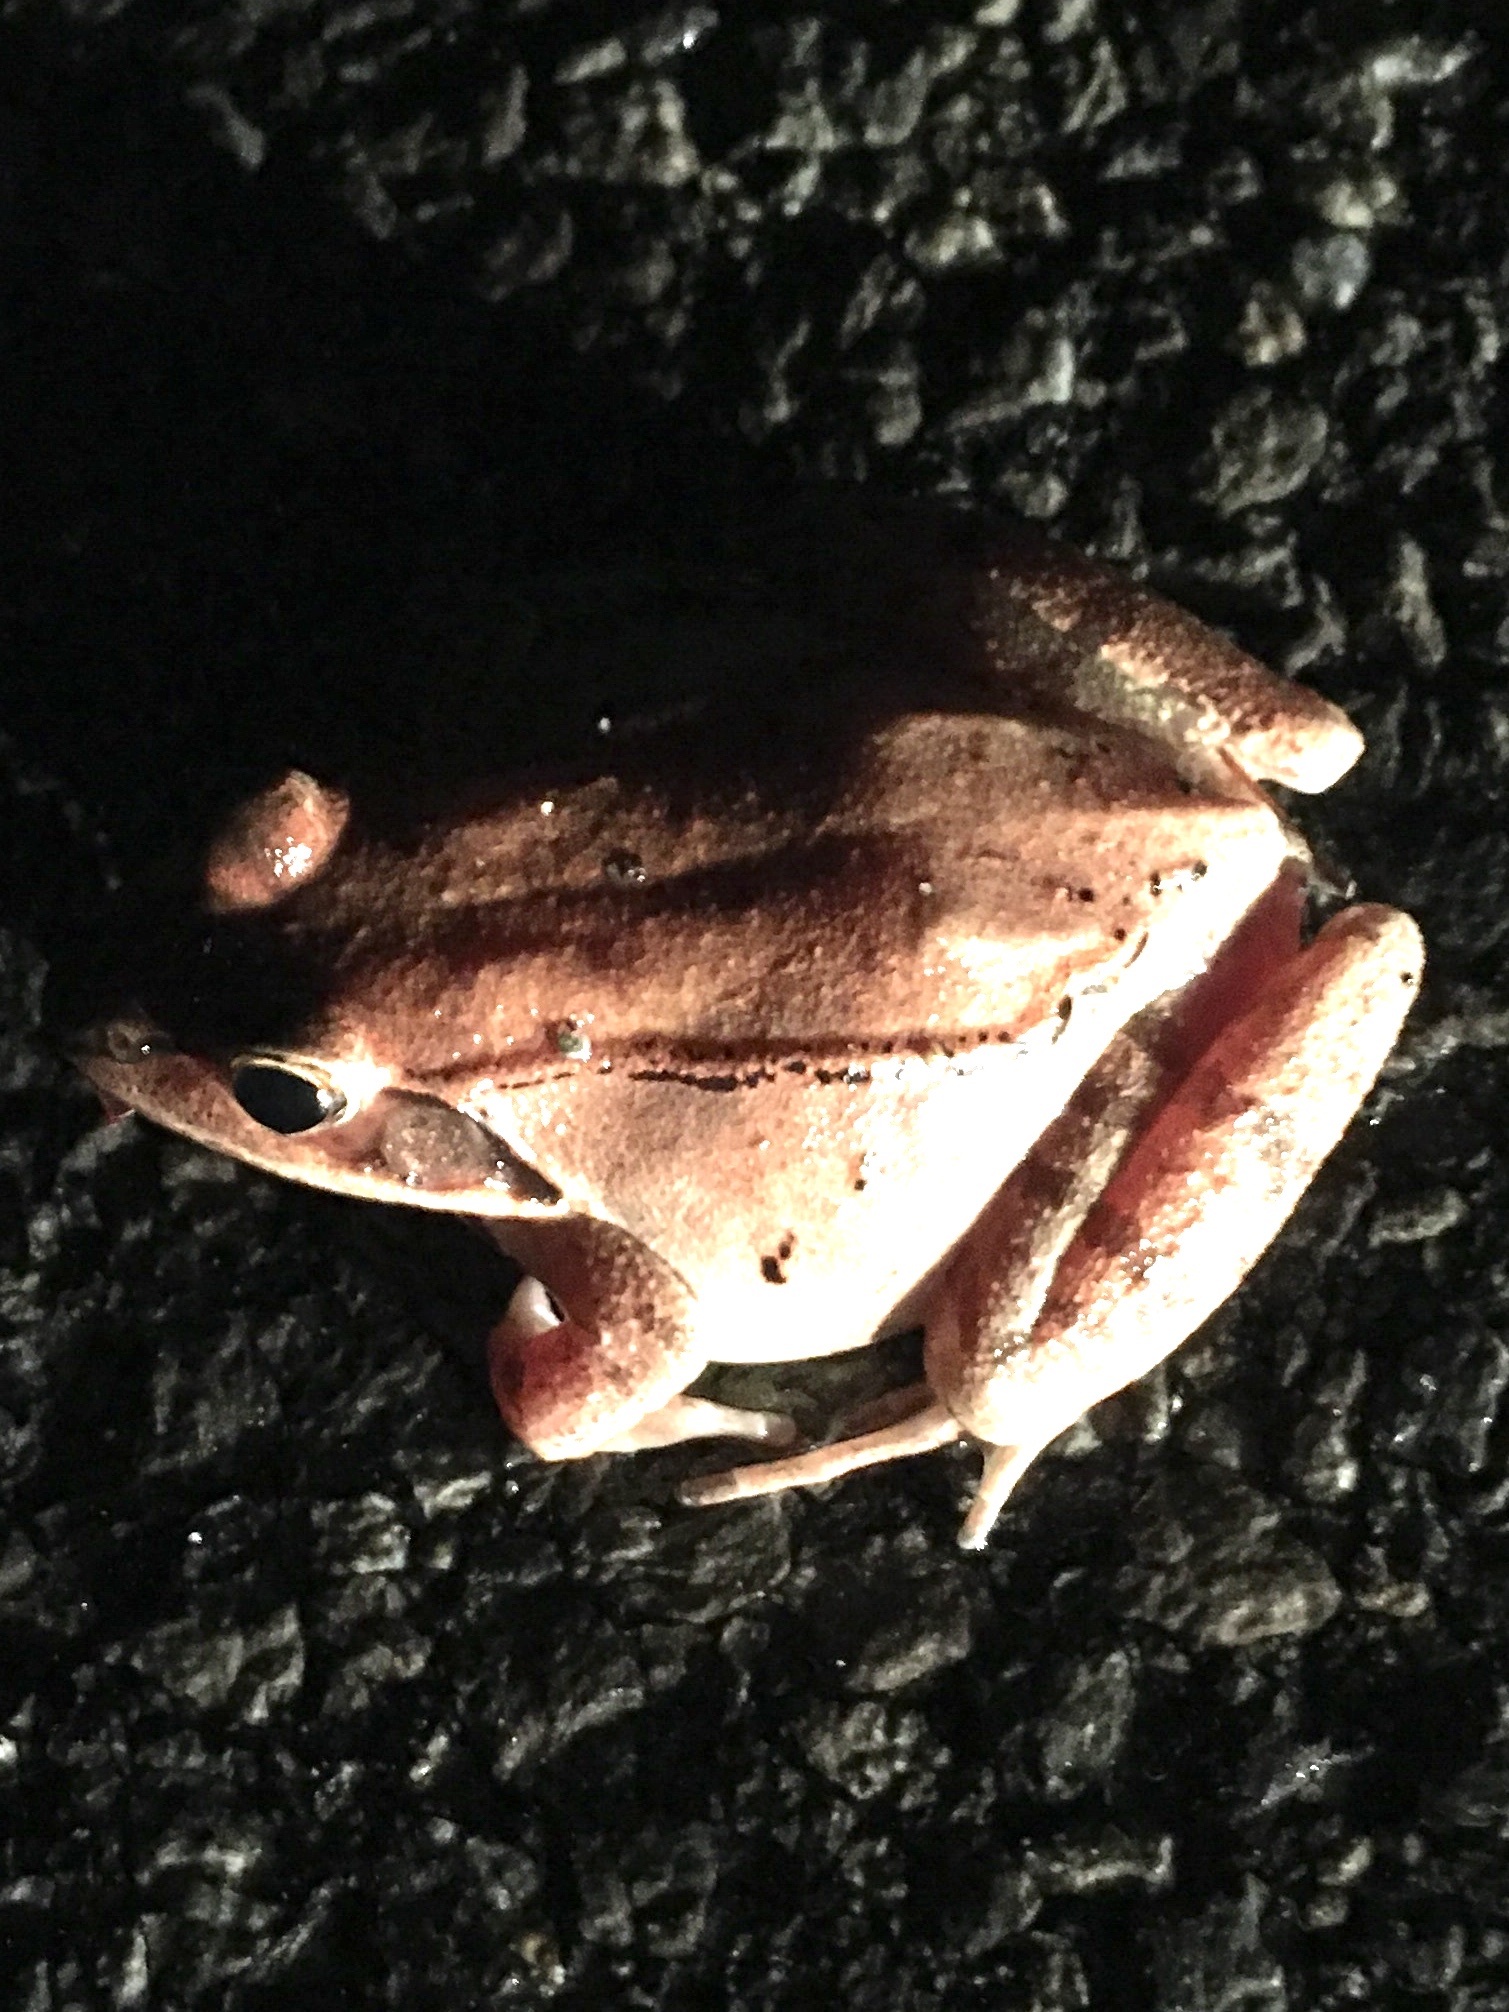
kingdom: Animalia
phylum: Chordata
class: Amphibia
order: Anura
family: Ranidae
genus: Lithobates
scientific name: Lithobates sylvaticus
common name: Wood frog
